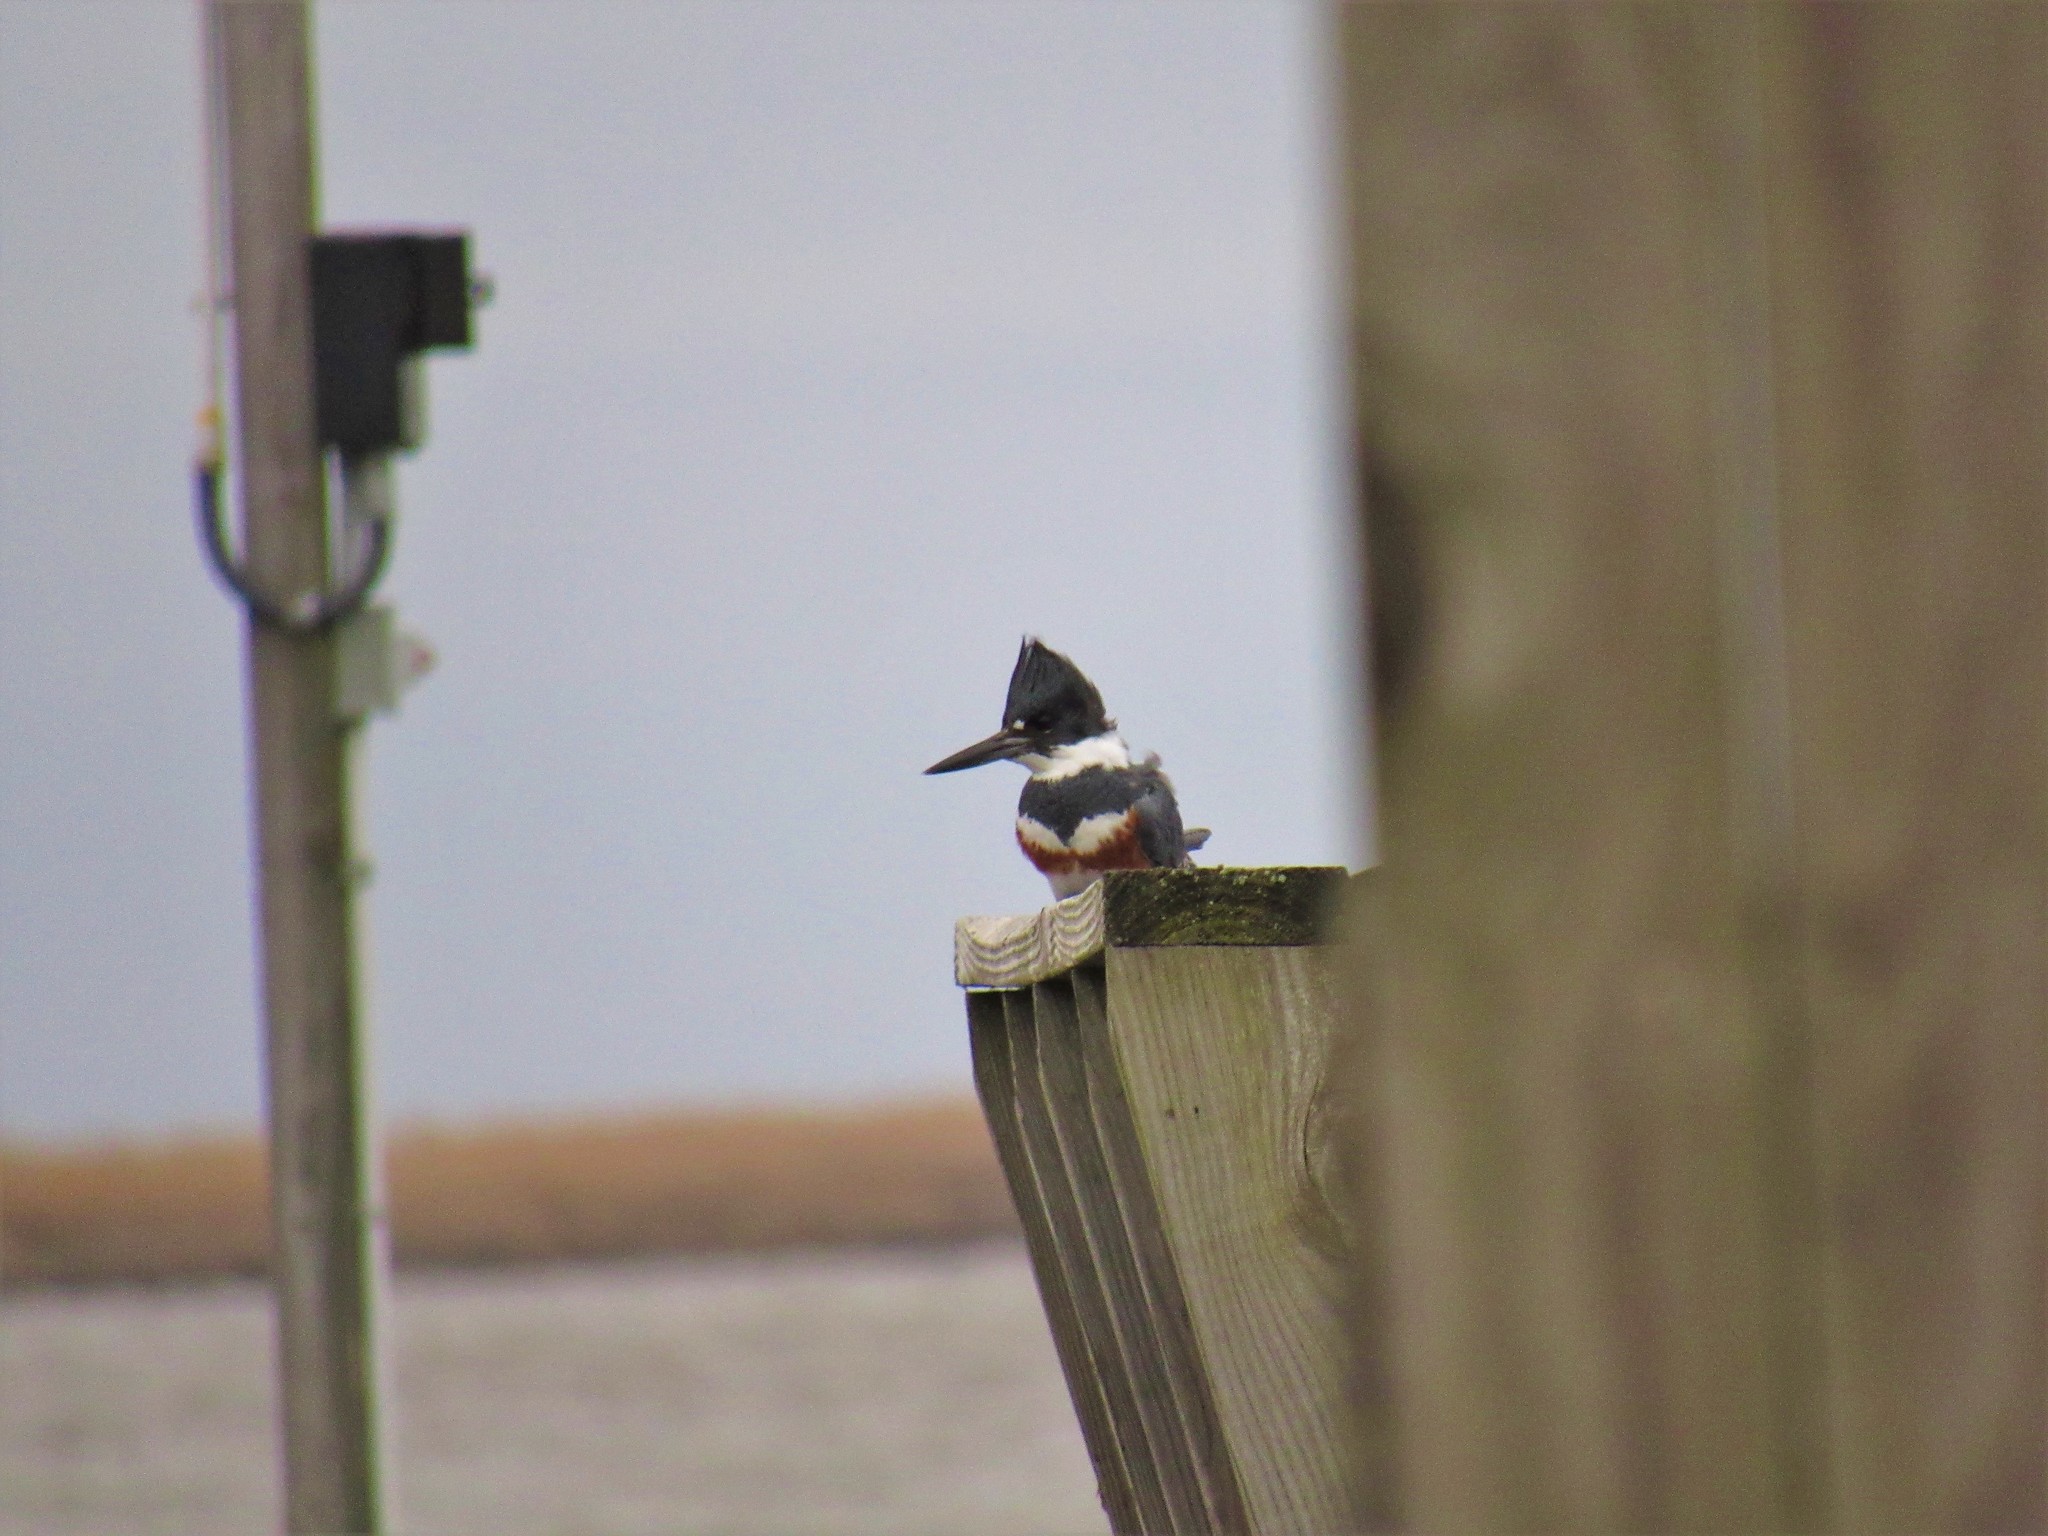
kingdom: Animalia
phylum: Chordata
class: Aves
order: Coraciiformes
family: Alcedinidae
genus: Megaceryle
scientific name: Megaceryle alcyon
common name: Belted kingfisher
